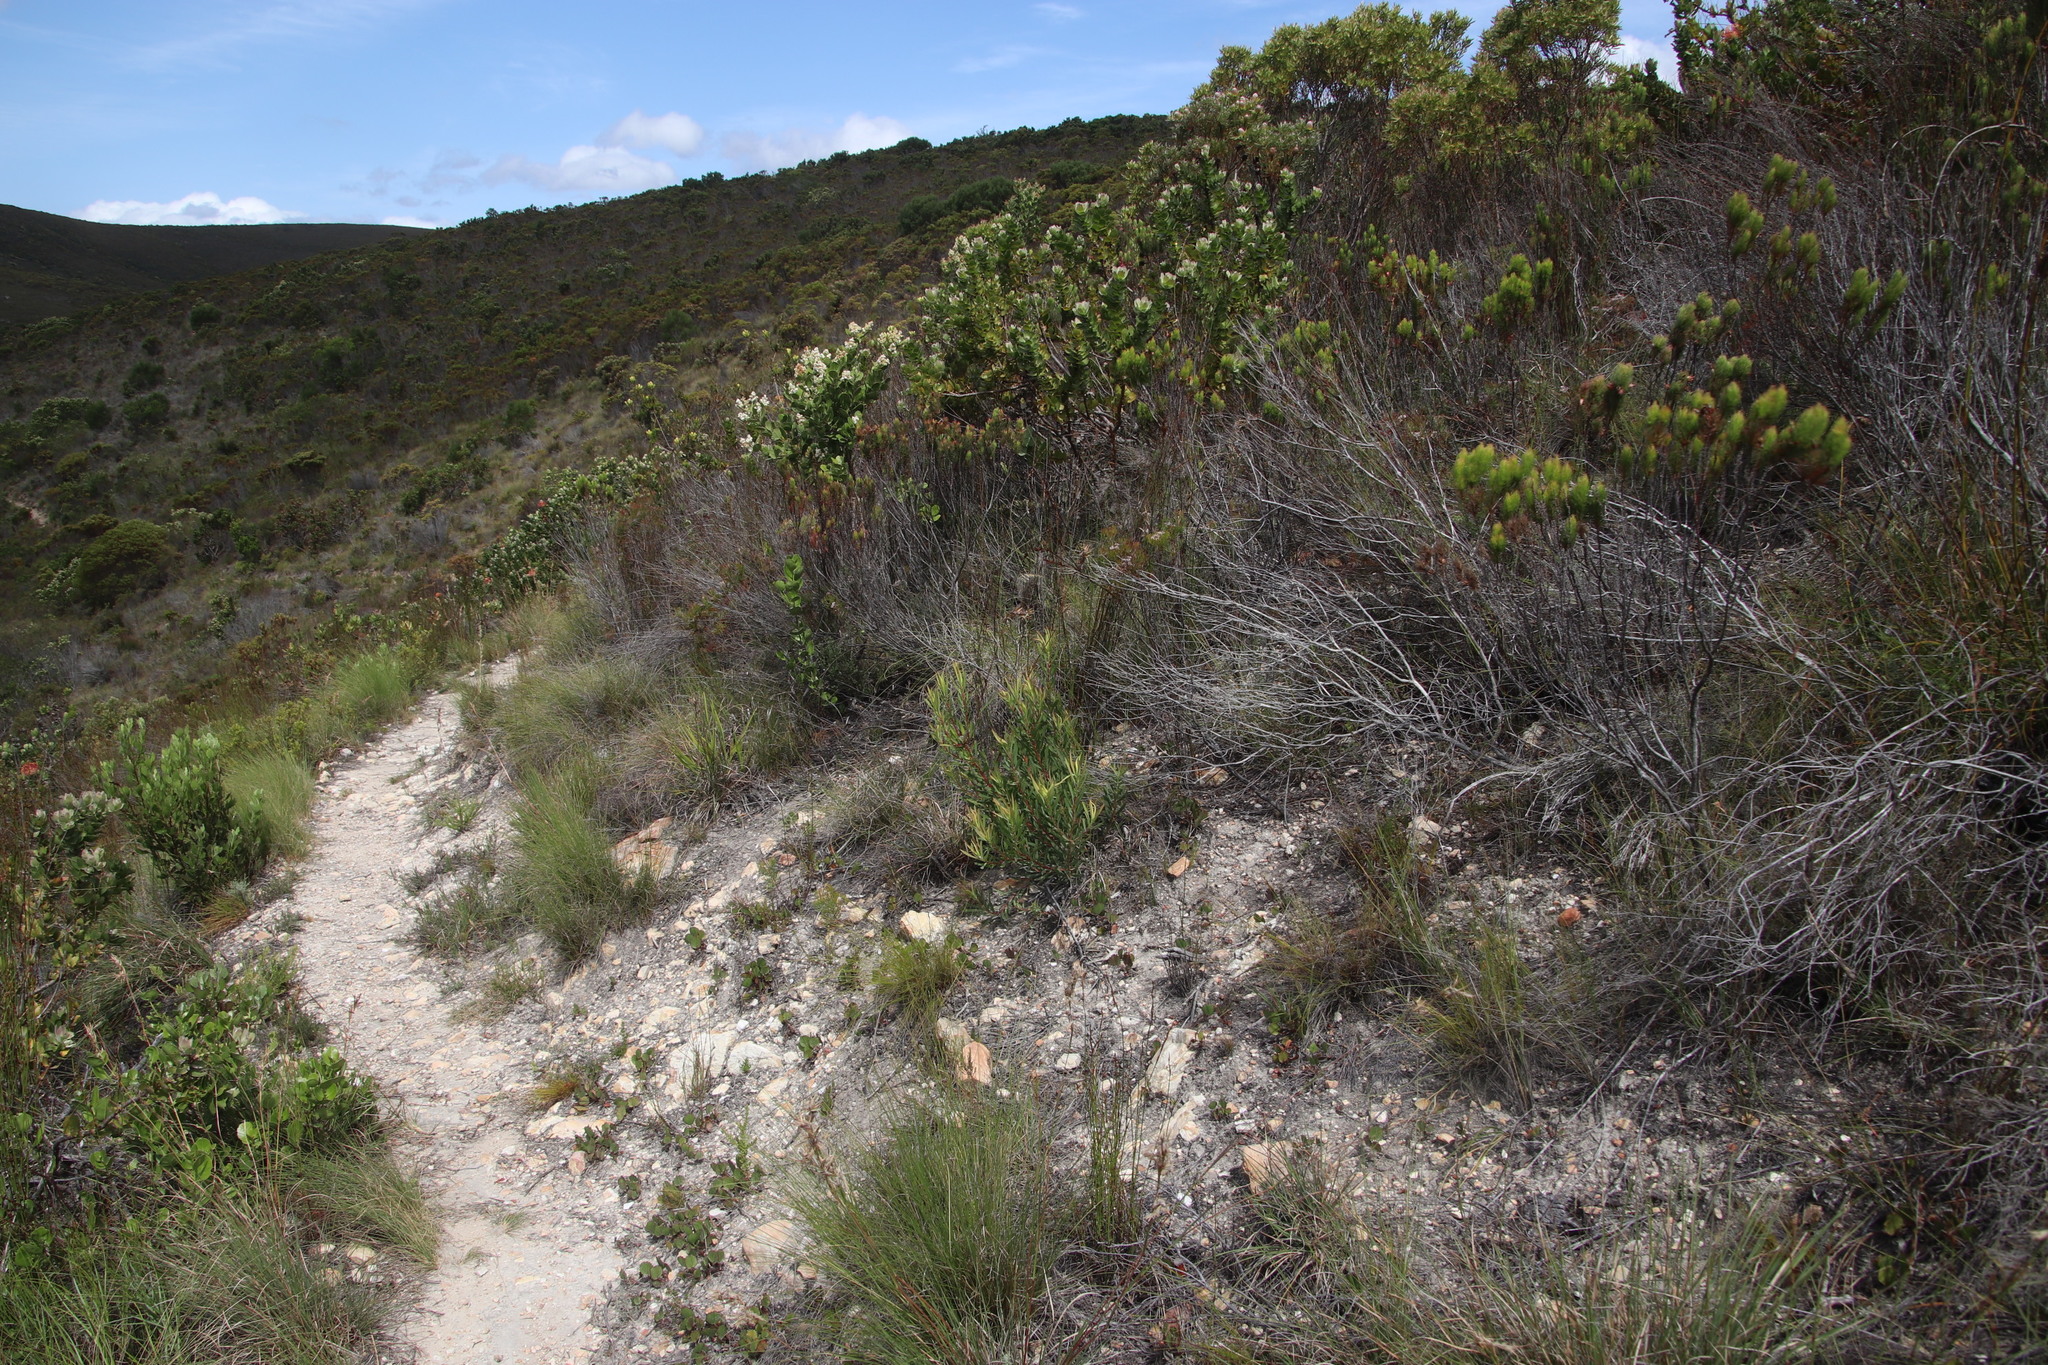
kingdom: Plantae
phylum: Tracheophyta
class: Magnoliopsida
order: Proteales
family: Proteaceae
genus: Leucadendron
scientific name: Leucadendron salignum
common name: Common sunshine conebush
